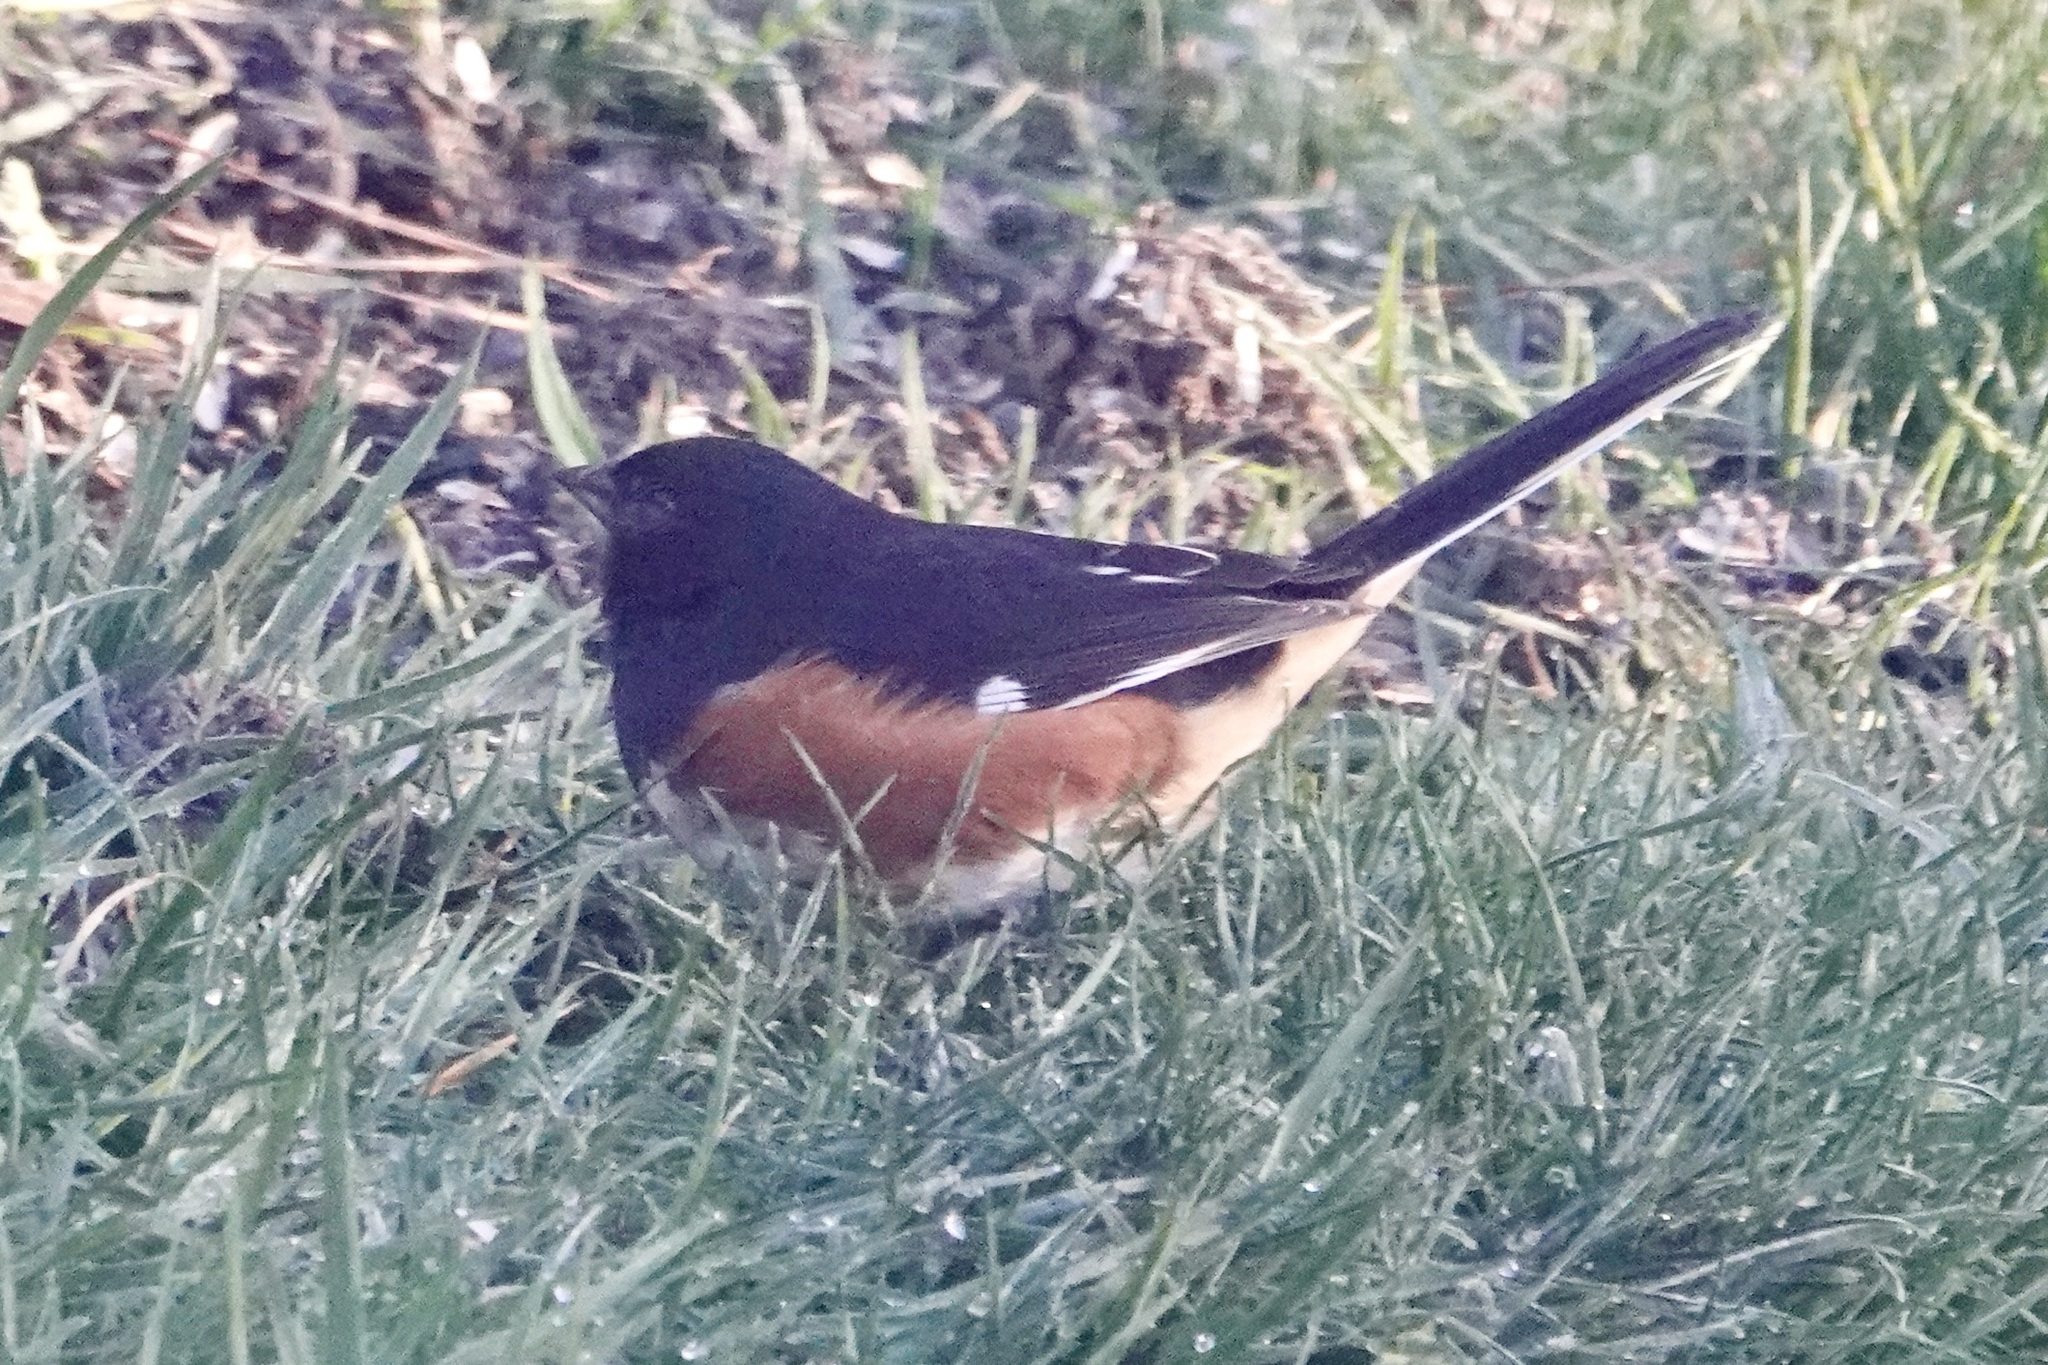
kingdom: Animalia
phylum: Chordata
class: Aves
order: Passeriformes
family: Passerellidae
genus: Pipilo
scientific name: Pipilo erythrophthalmus
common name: Eastern towhee
